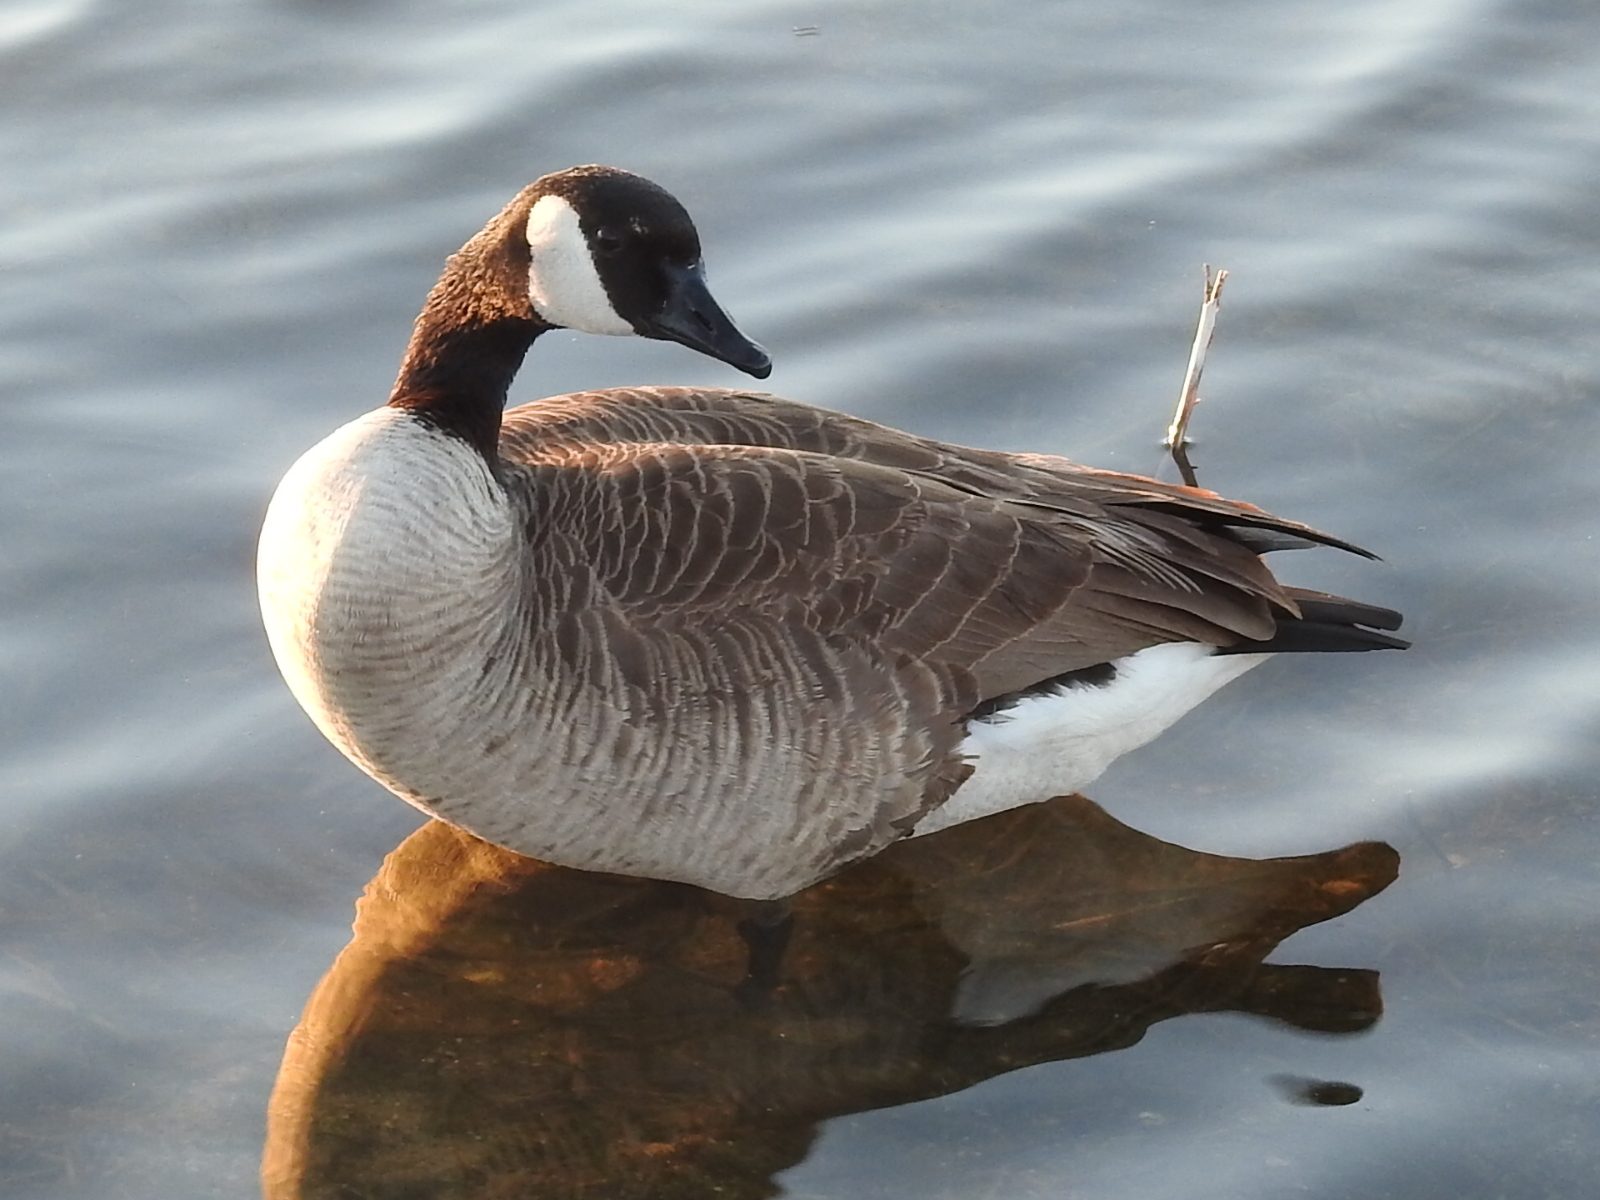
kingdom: Animalia
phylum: Chordata
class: Aves
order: Anseriformes
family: Anatidae
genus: Branta
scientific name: Branta canadensis
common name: Canada goose
